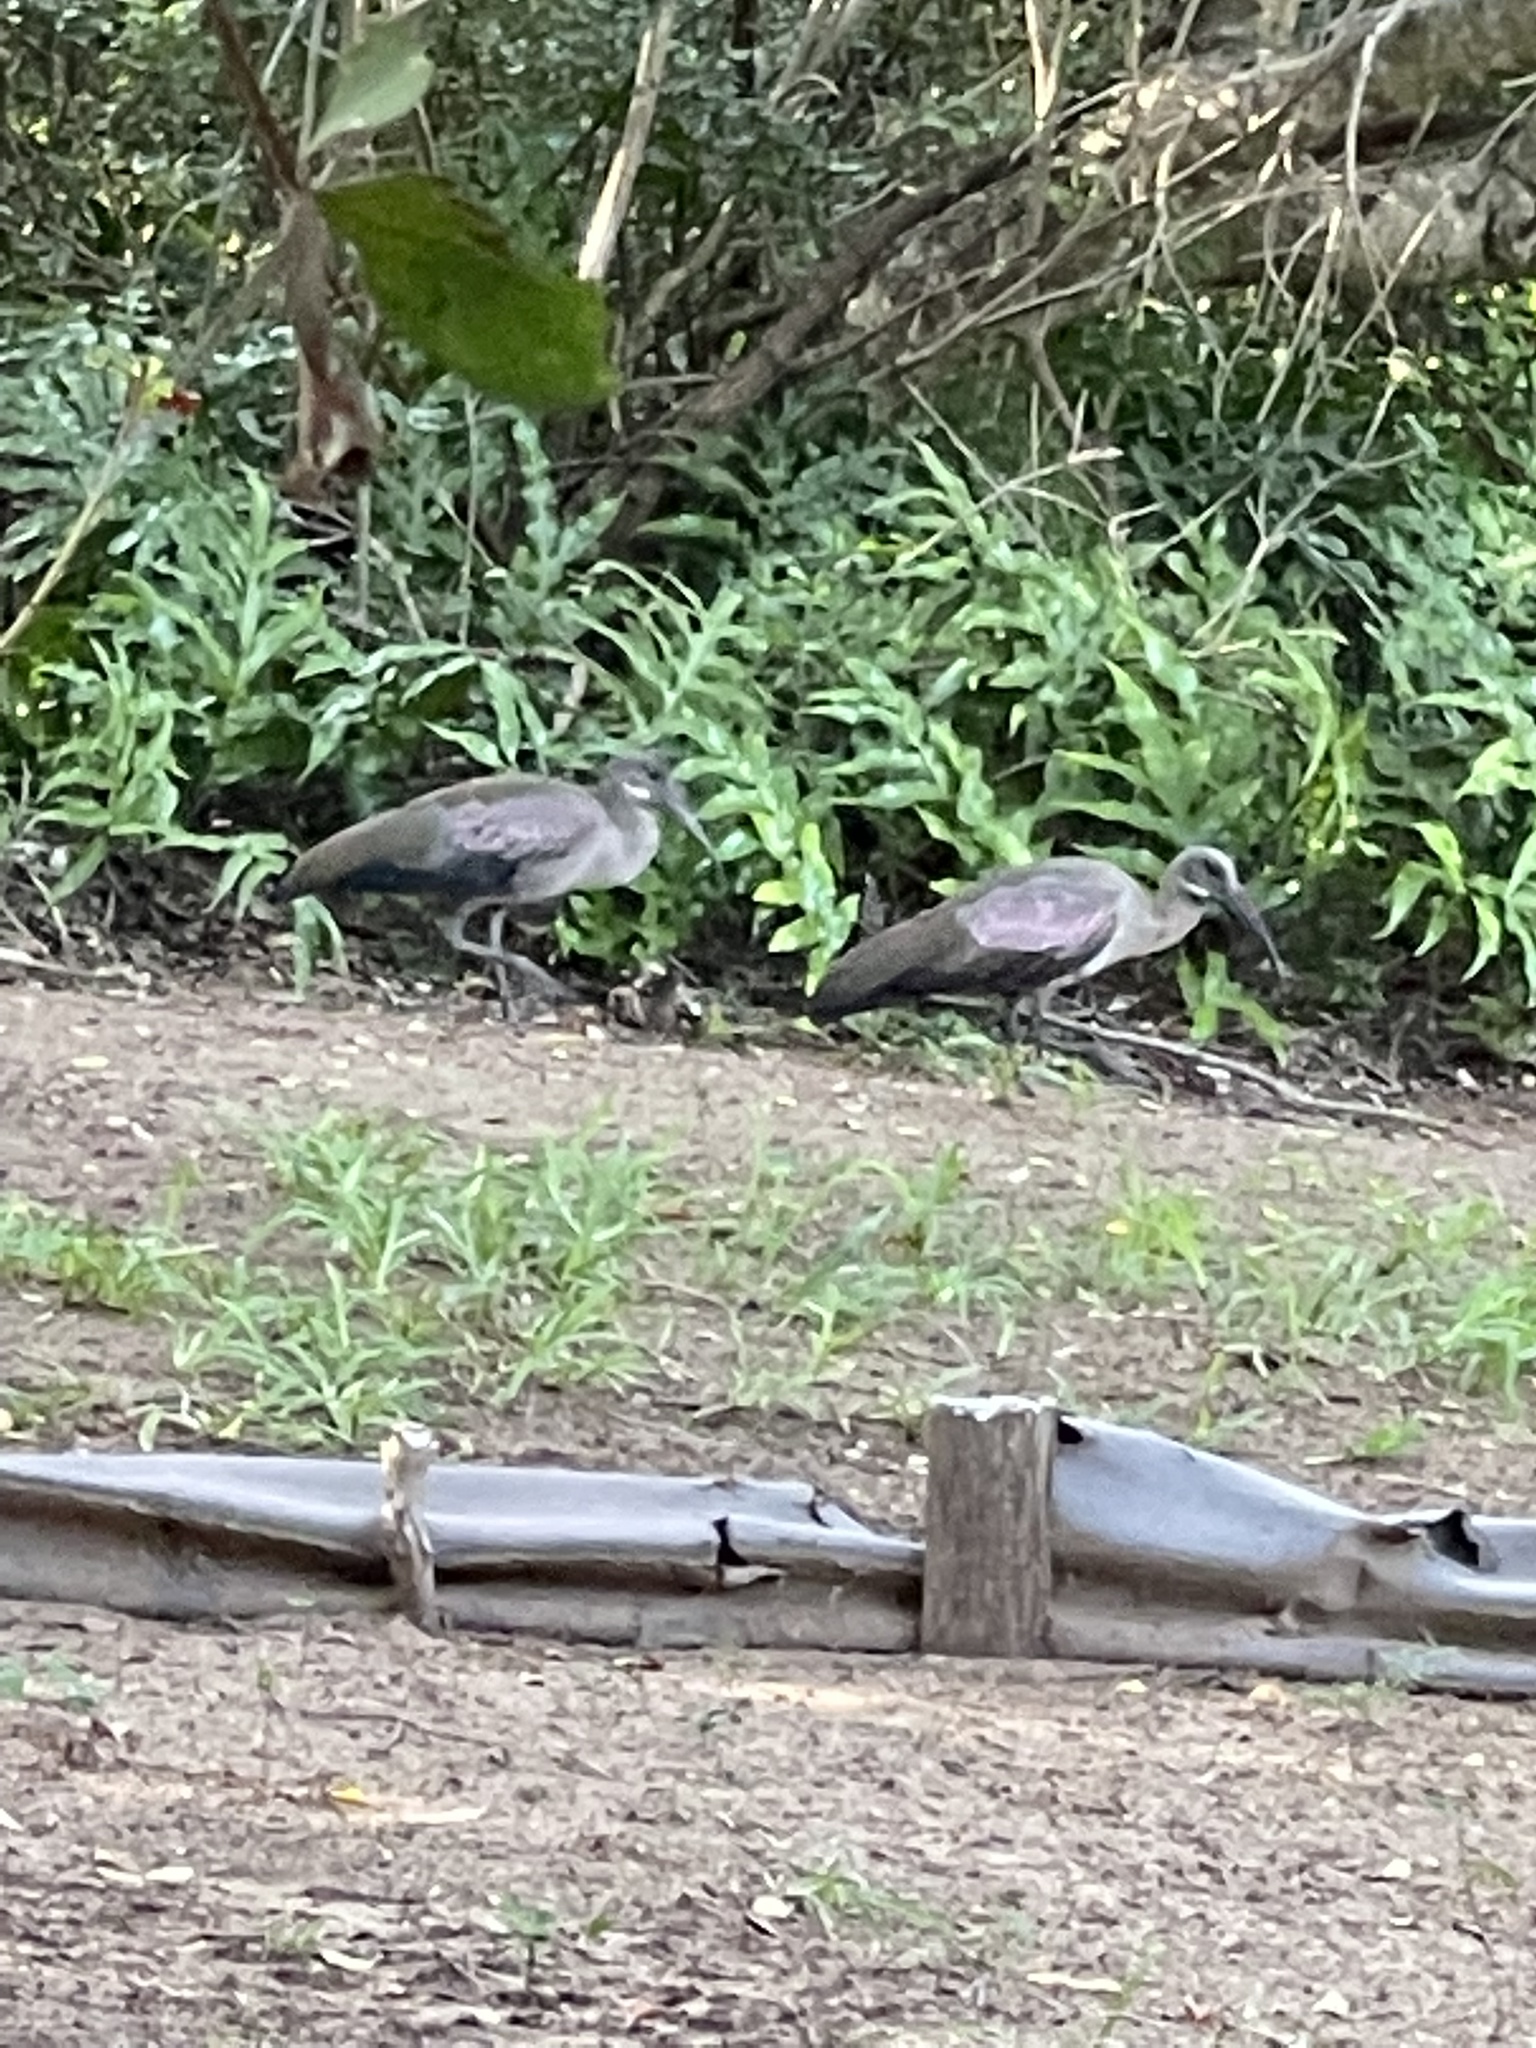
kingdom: Animalia
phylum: Chordata
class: Aves
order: Pelecaniformes
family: Threskiornithidae
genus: Bostrychia
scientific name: Bostrychia hagedash
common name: Hadada ibis
